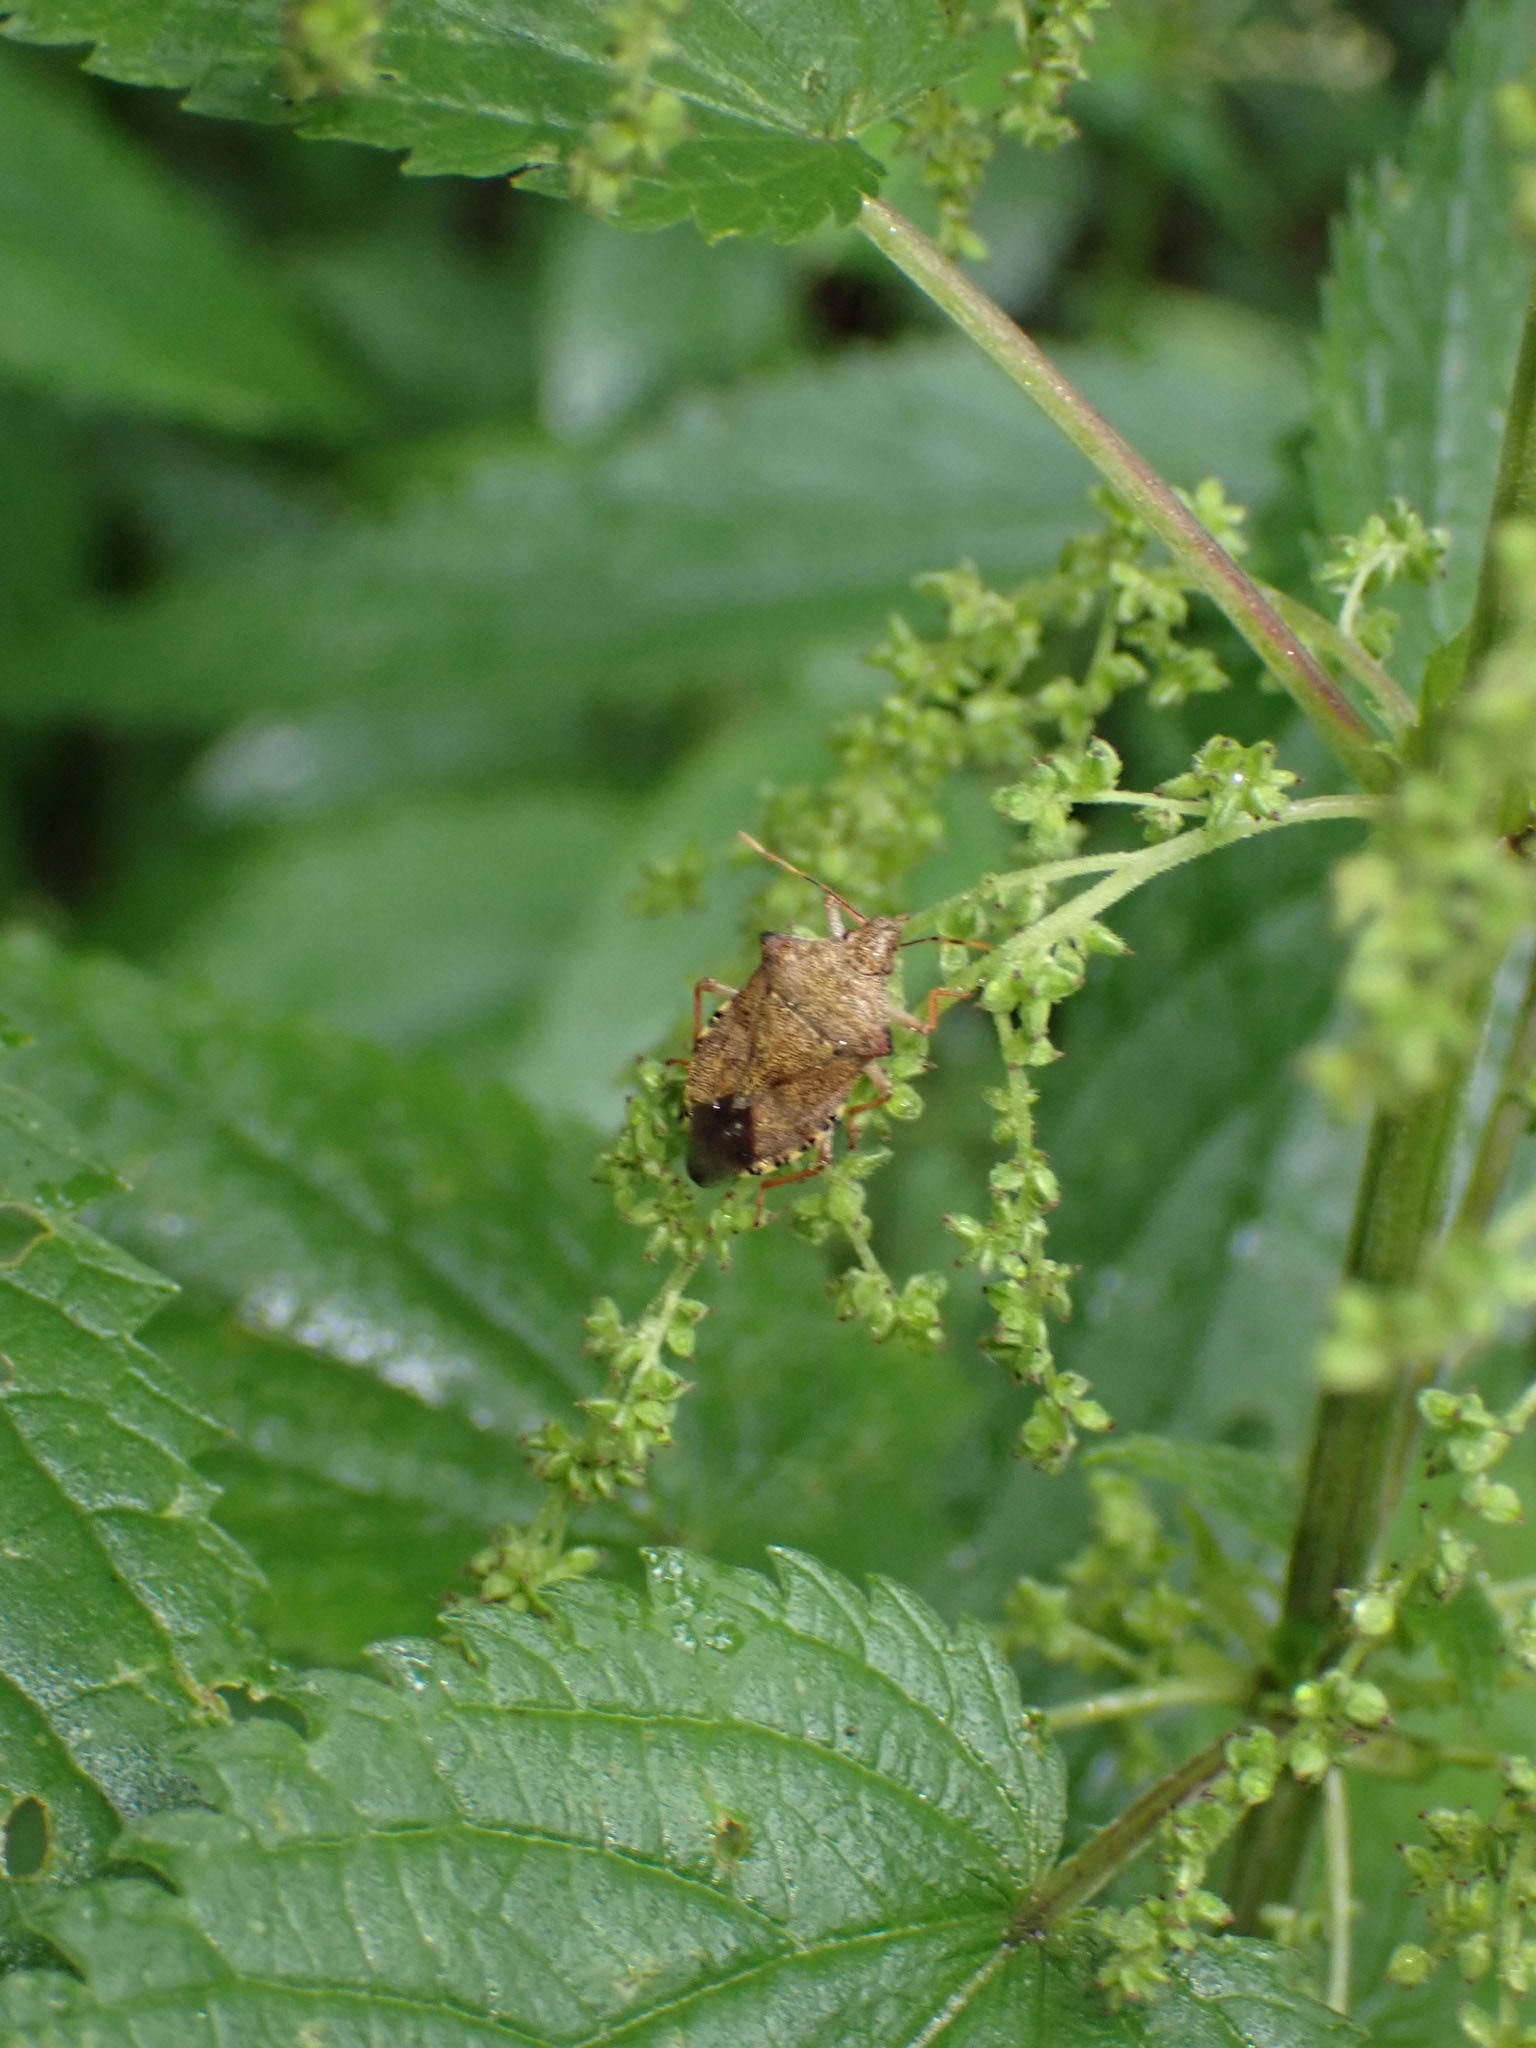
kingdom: Animalia
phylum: Arthropoda
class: Insecta
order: Hemiptera
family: Pentatomidae
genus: Arma
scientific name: Arma custos
